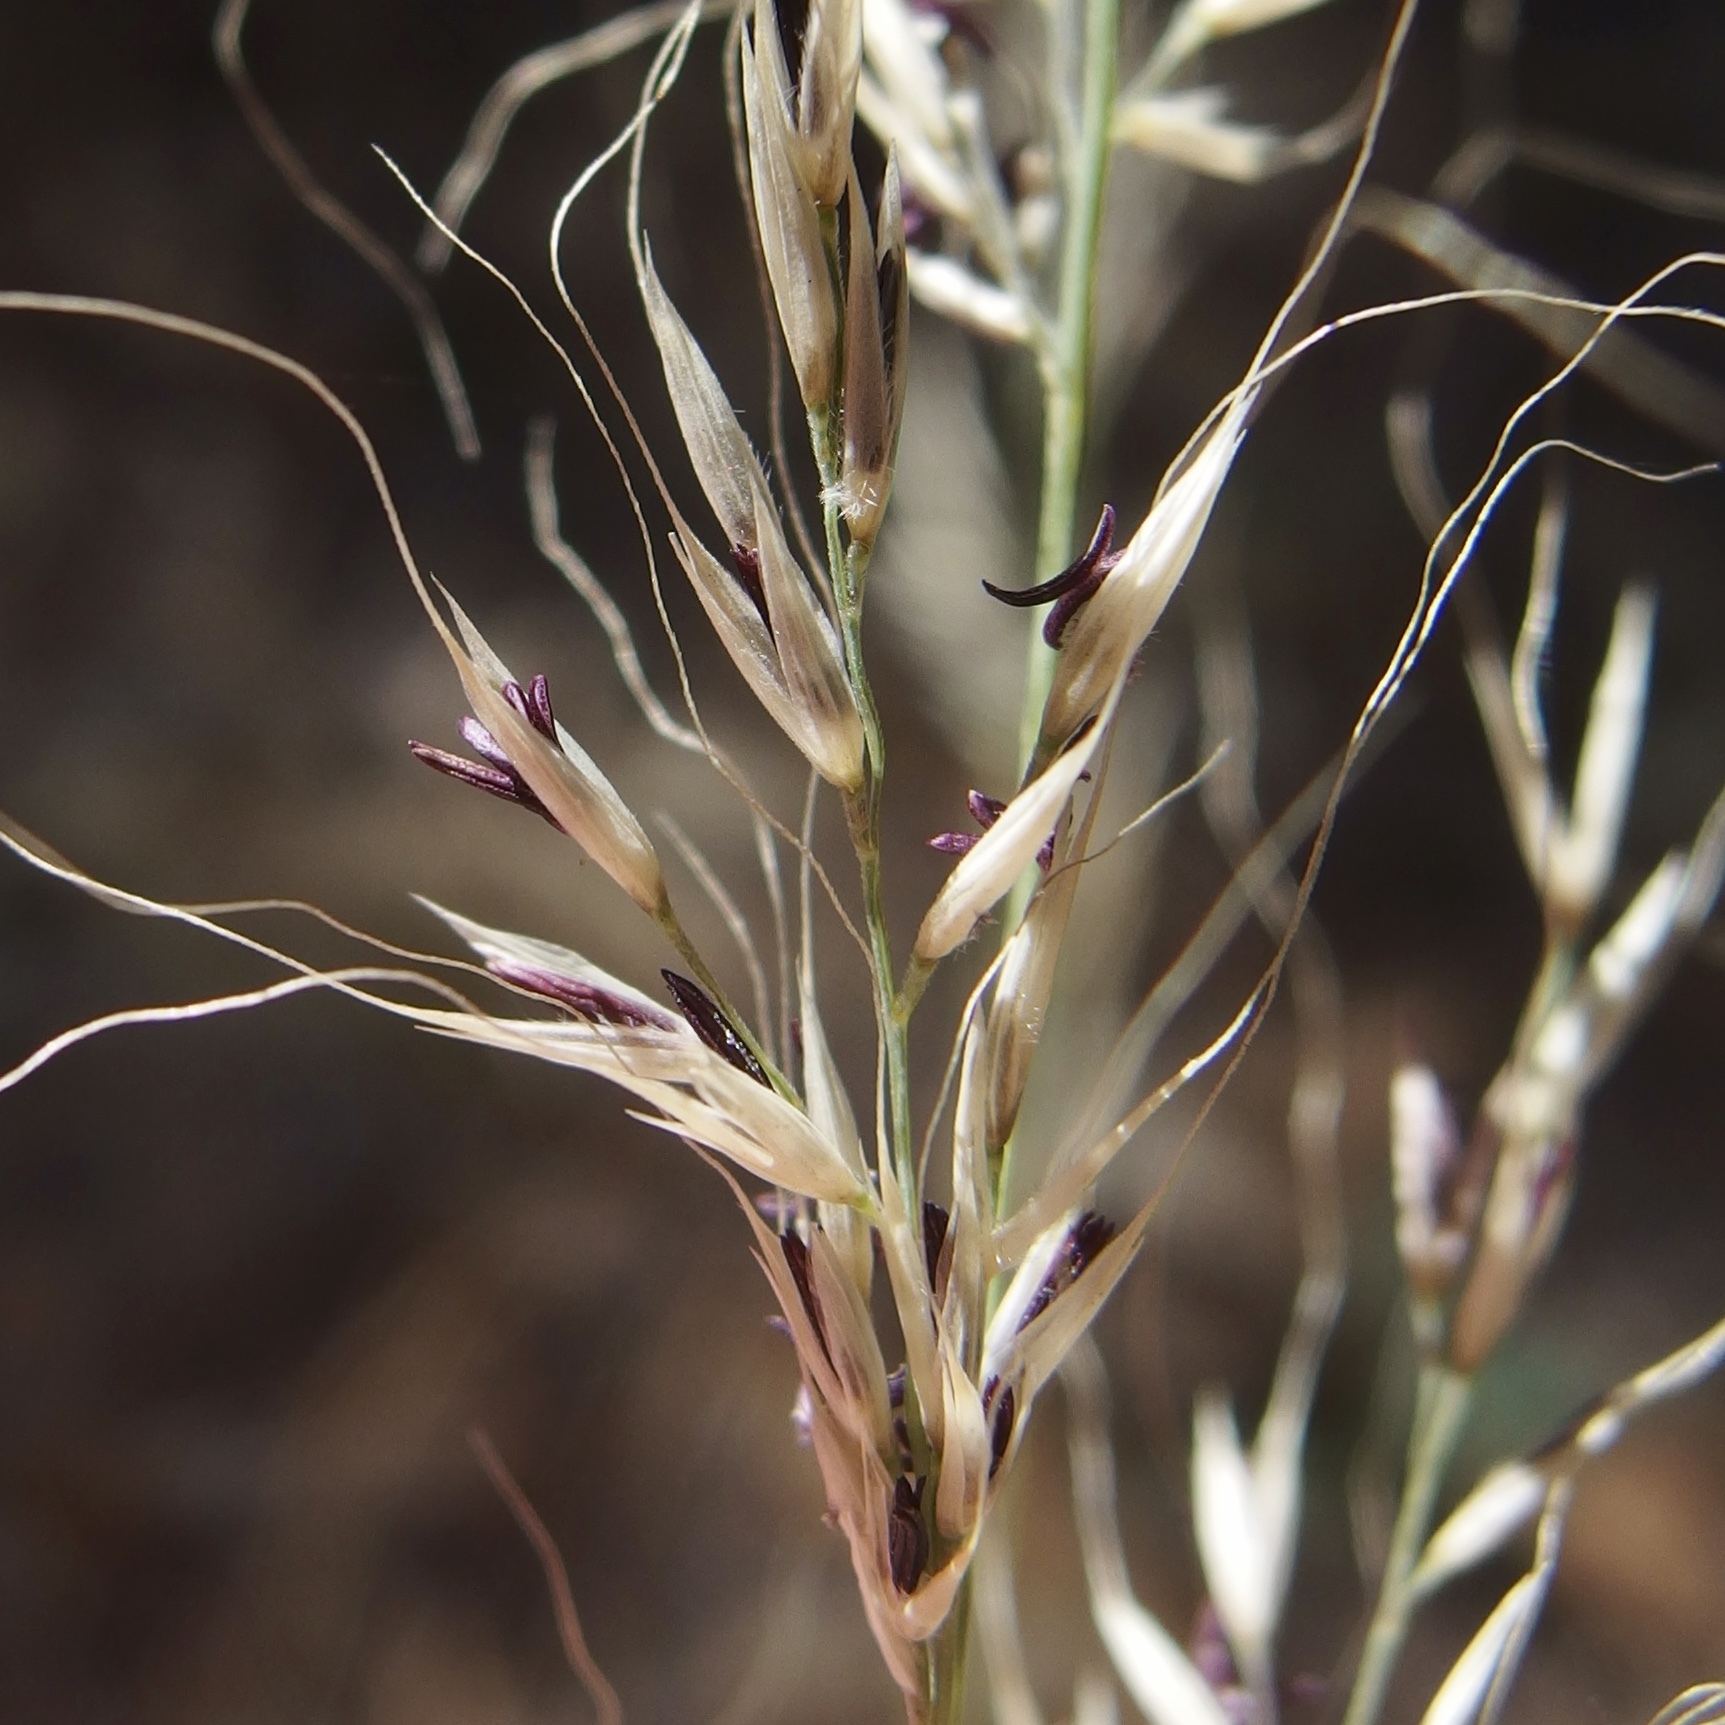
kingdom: Plantae
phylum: Tracheophyta
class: Liliopsida
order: Poales
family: Poaceae
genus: Muhlenbergia
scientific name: Muhlenbergia straminea
